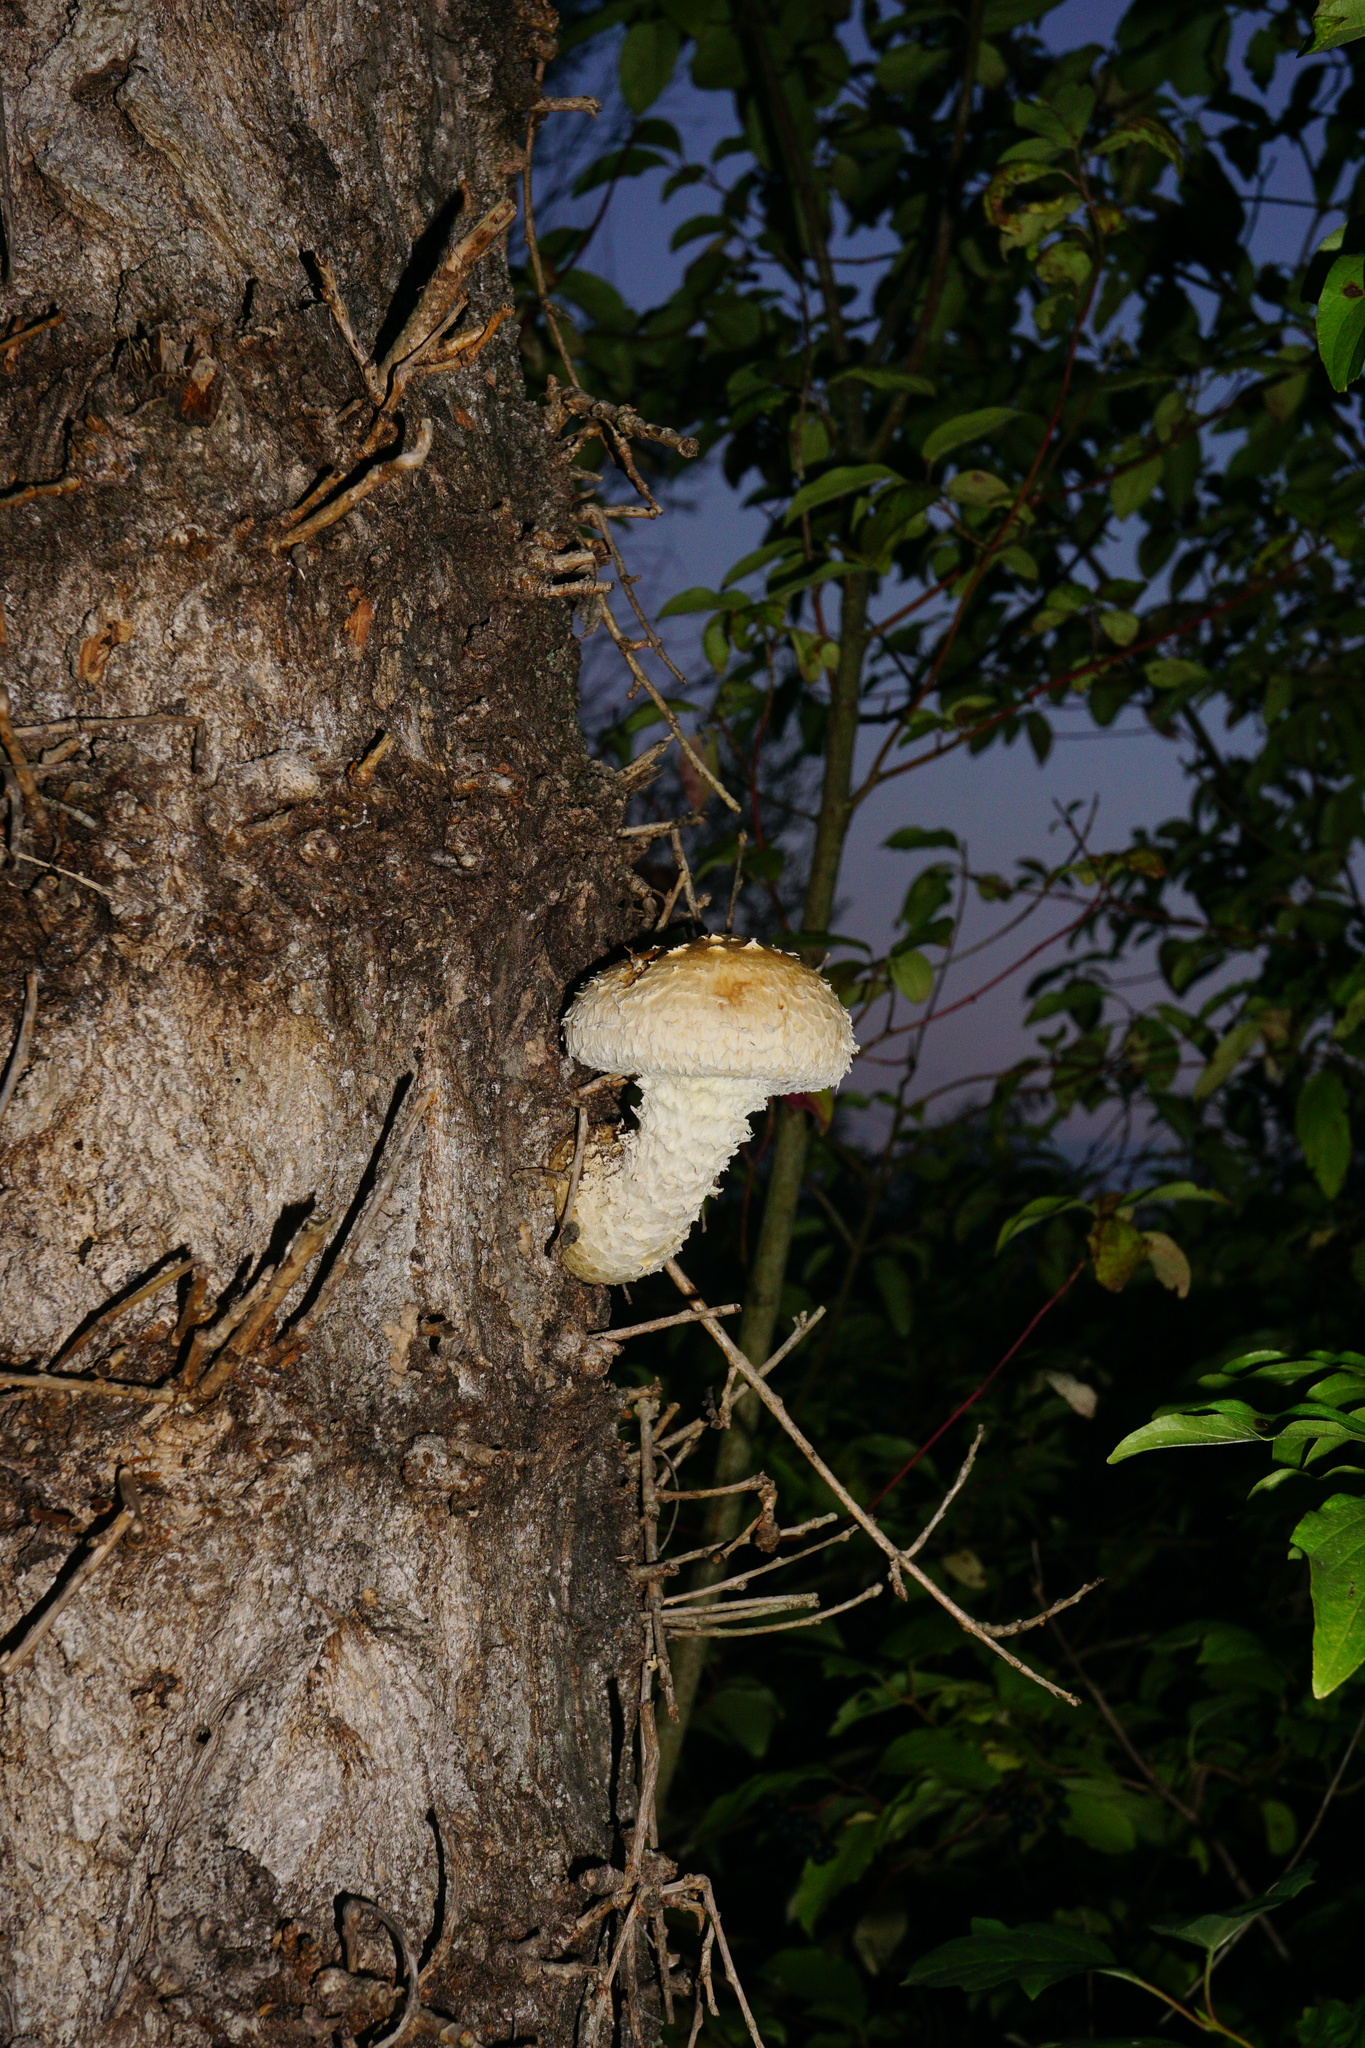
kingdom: Fungi
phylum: Basidiomycota
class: Agaricomycetes
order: Agaricales
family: Strophariaceae
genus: Pholiota
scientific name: Pholiota populnea
